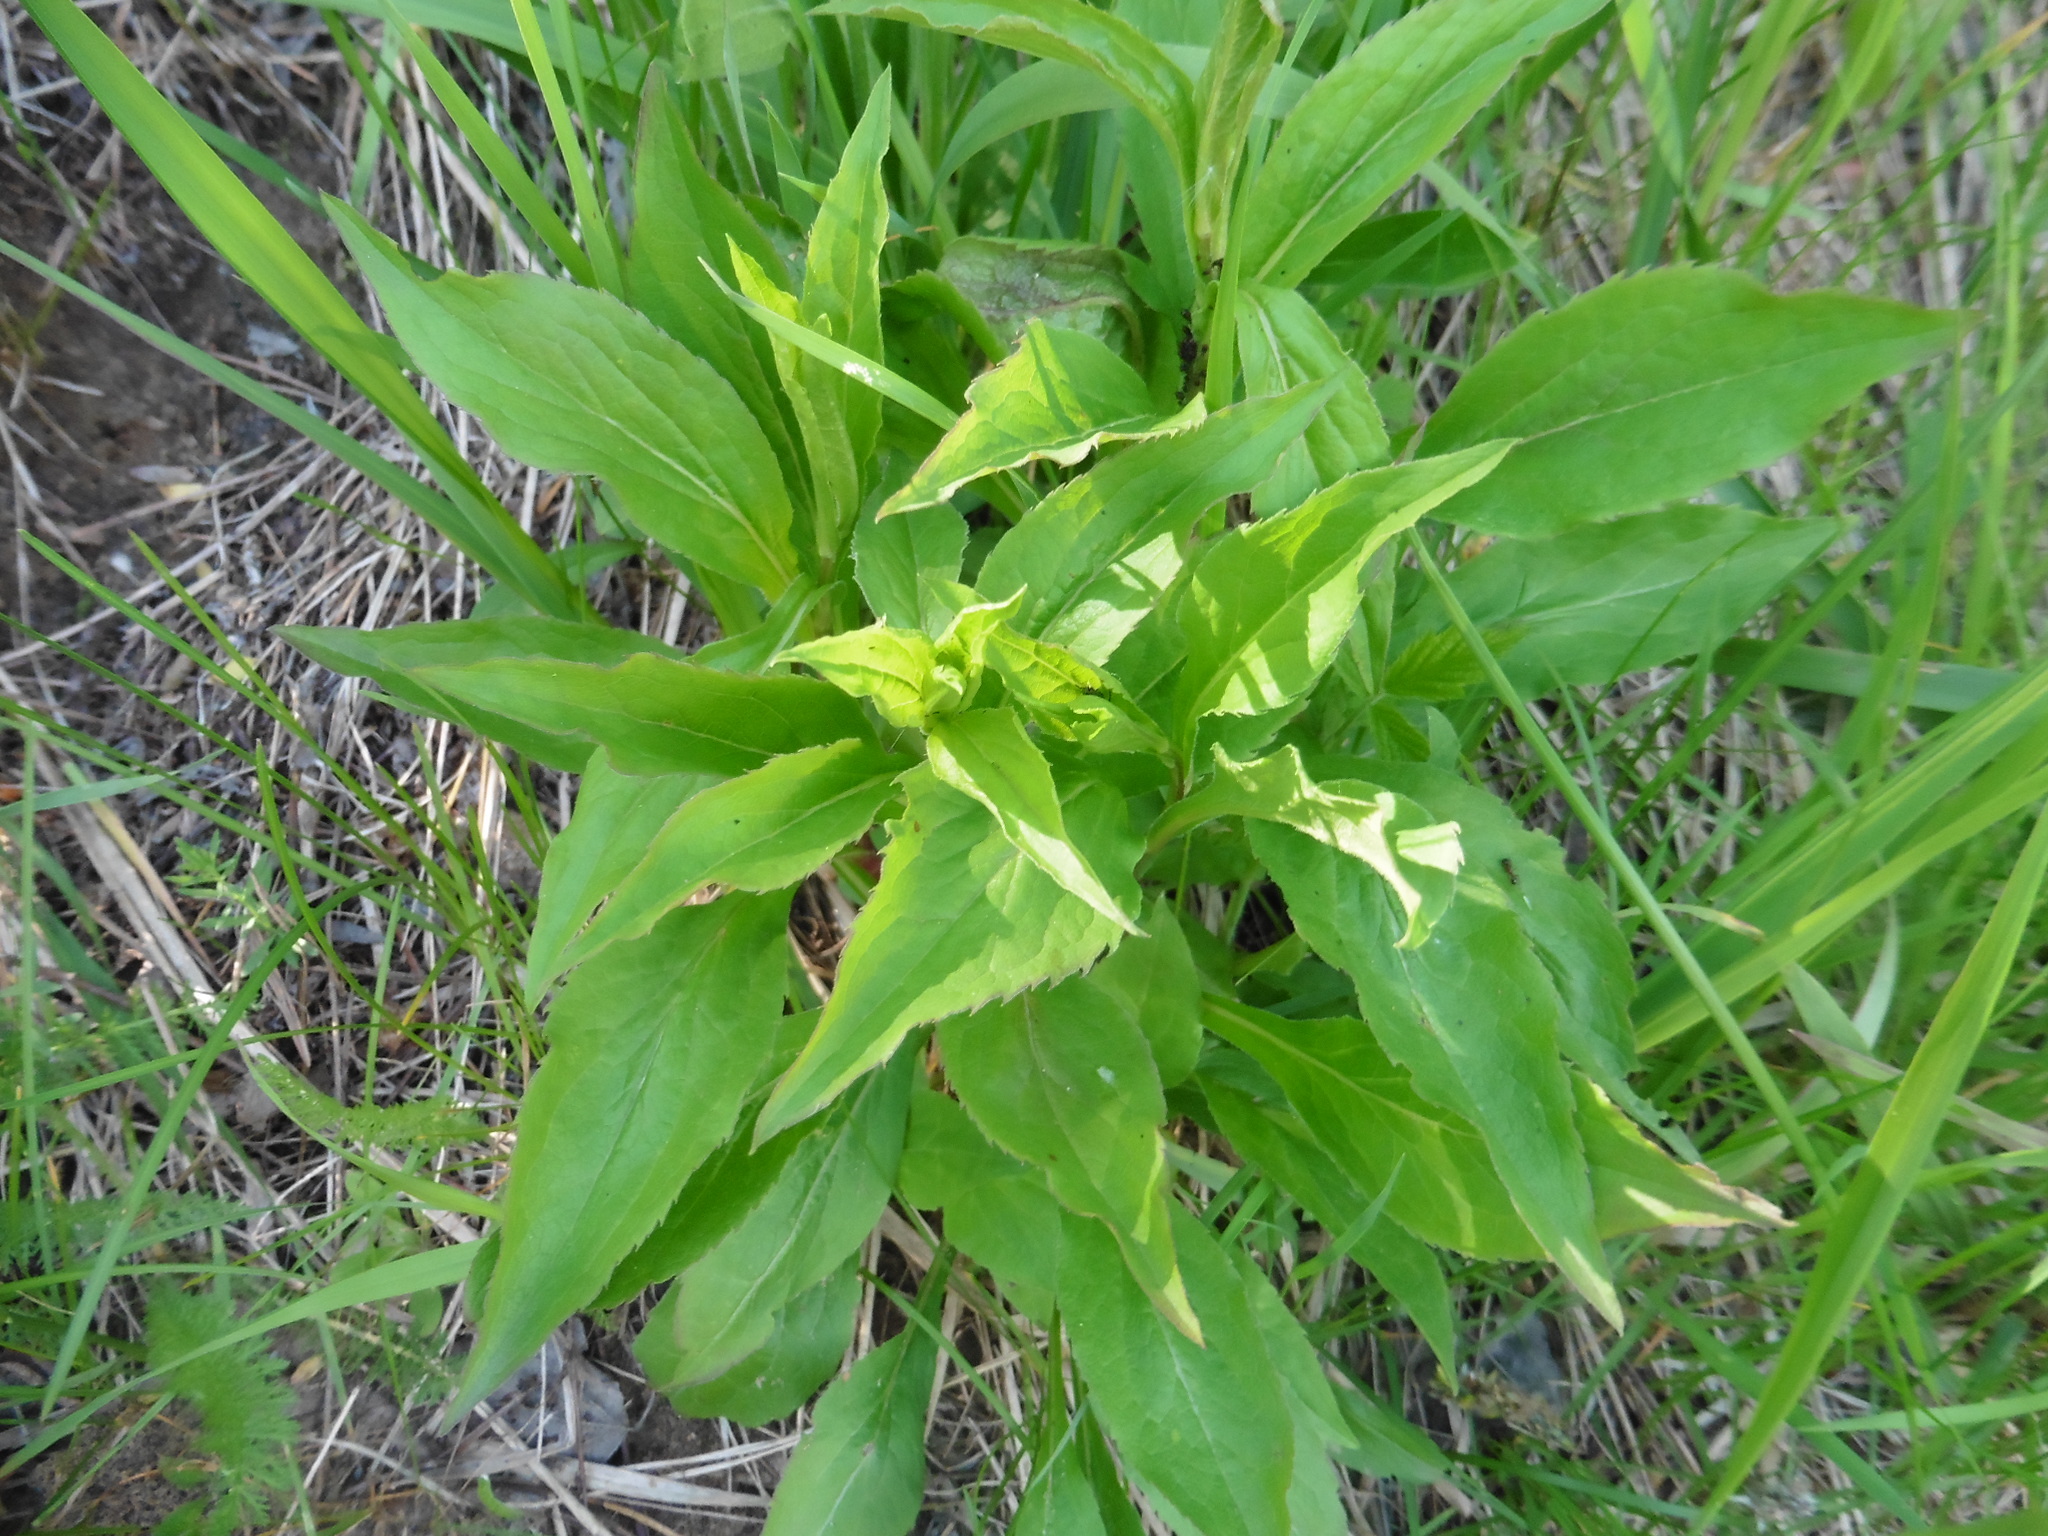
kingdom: Plantae
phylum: Tracheophyta
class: Magnoliopsida
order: Asterales
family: Asteraceae
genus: Solidago
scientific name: Solidago virgaurea
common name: Goldenrod
